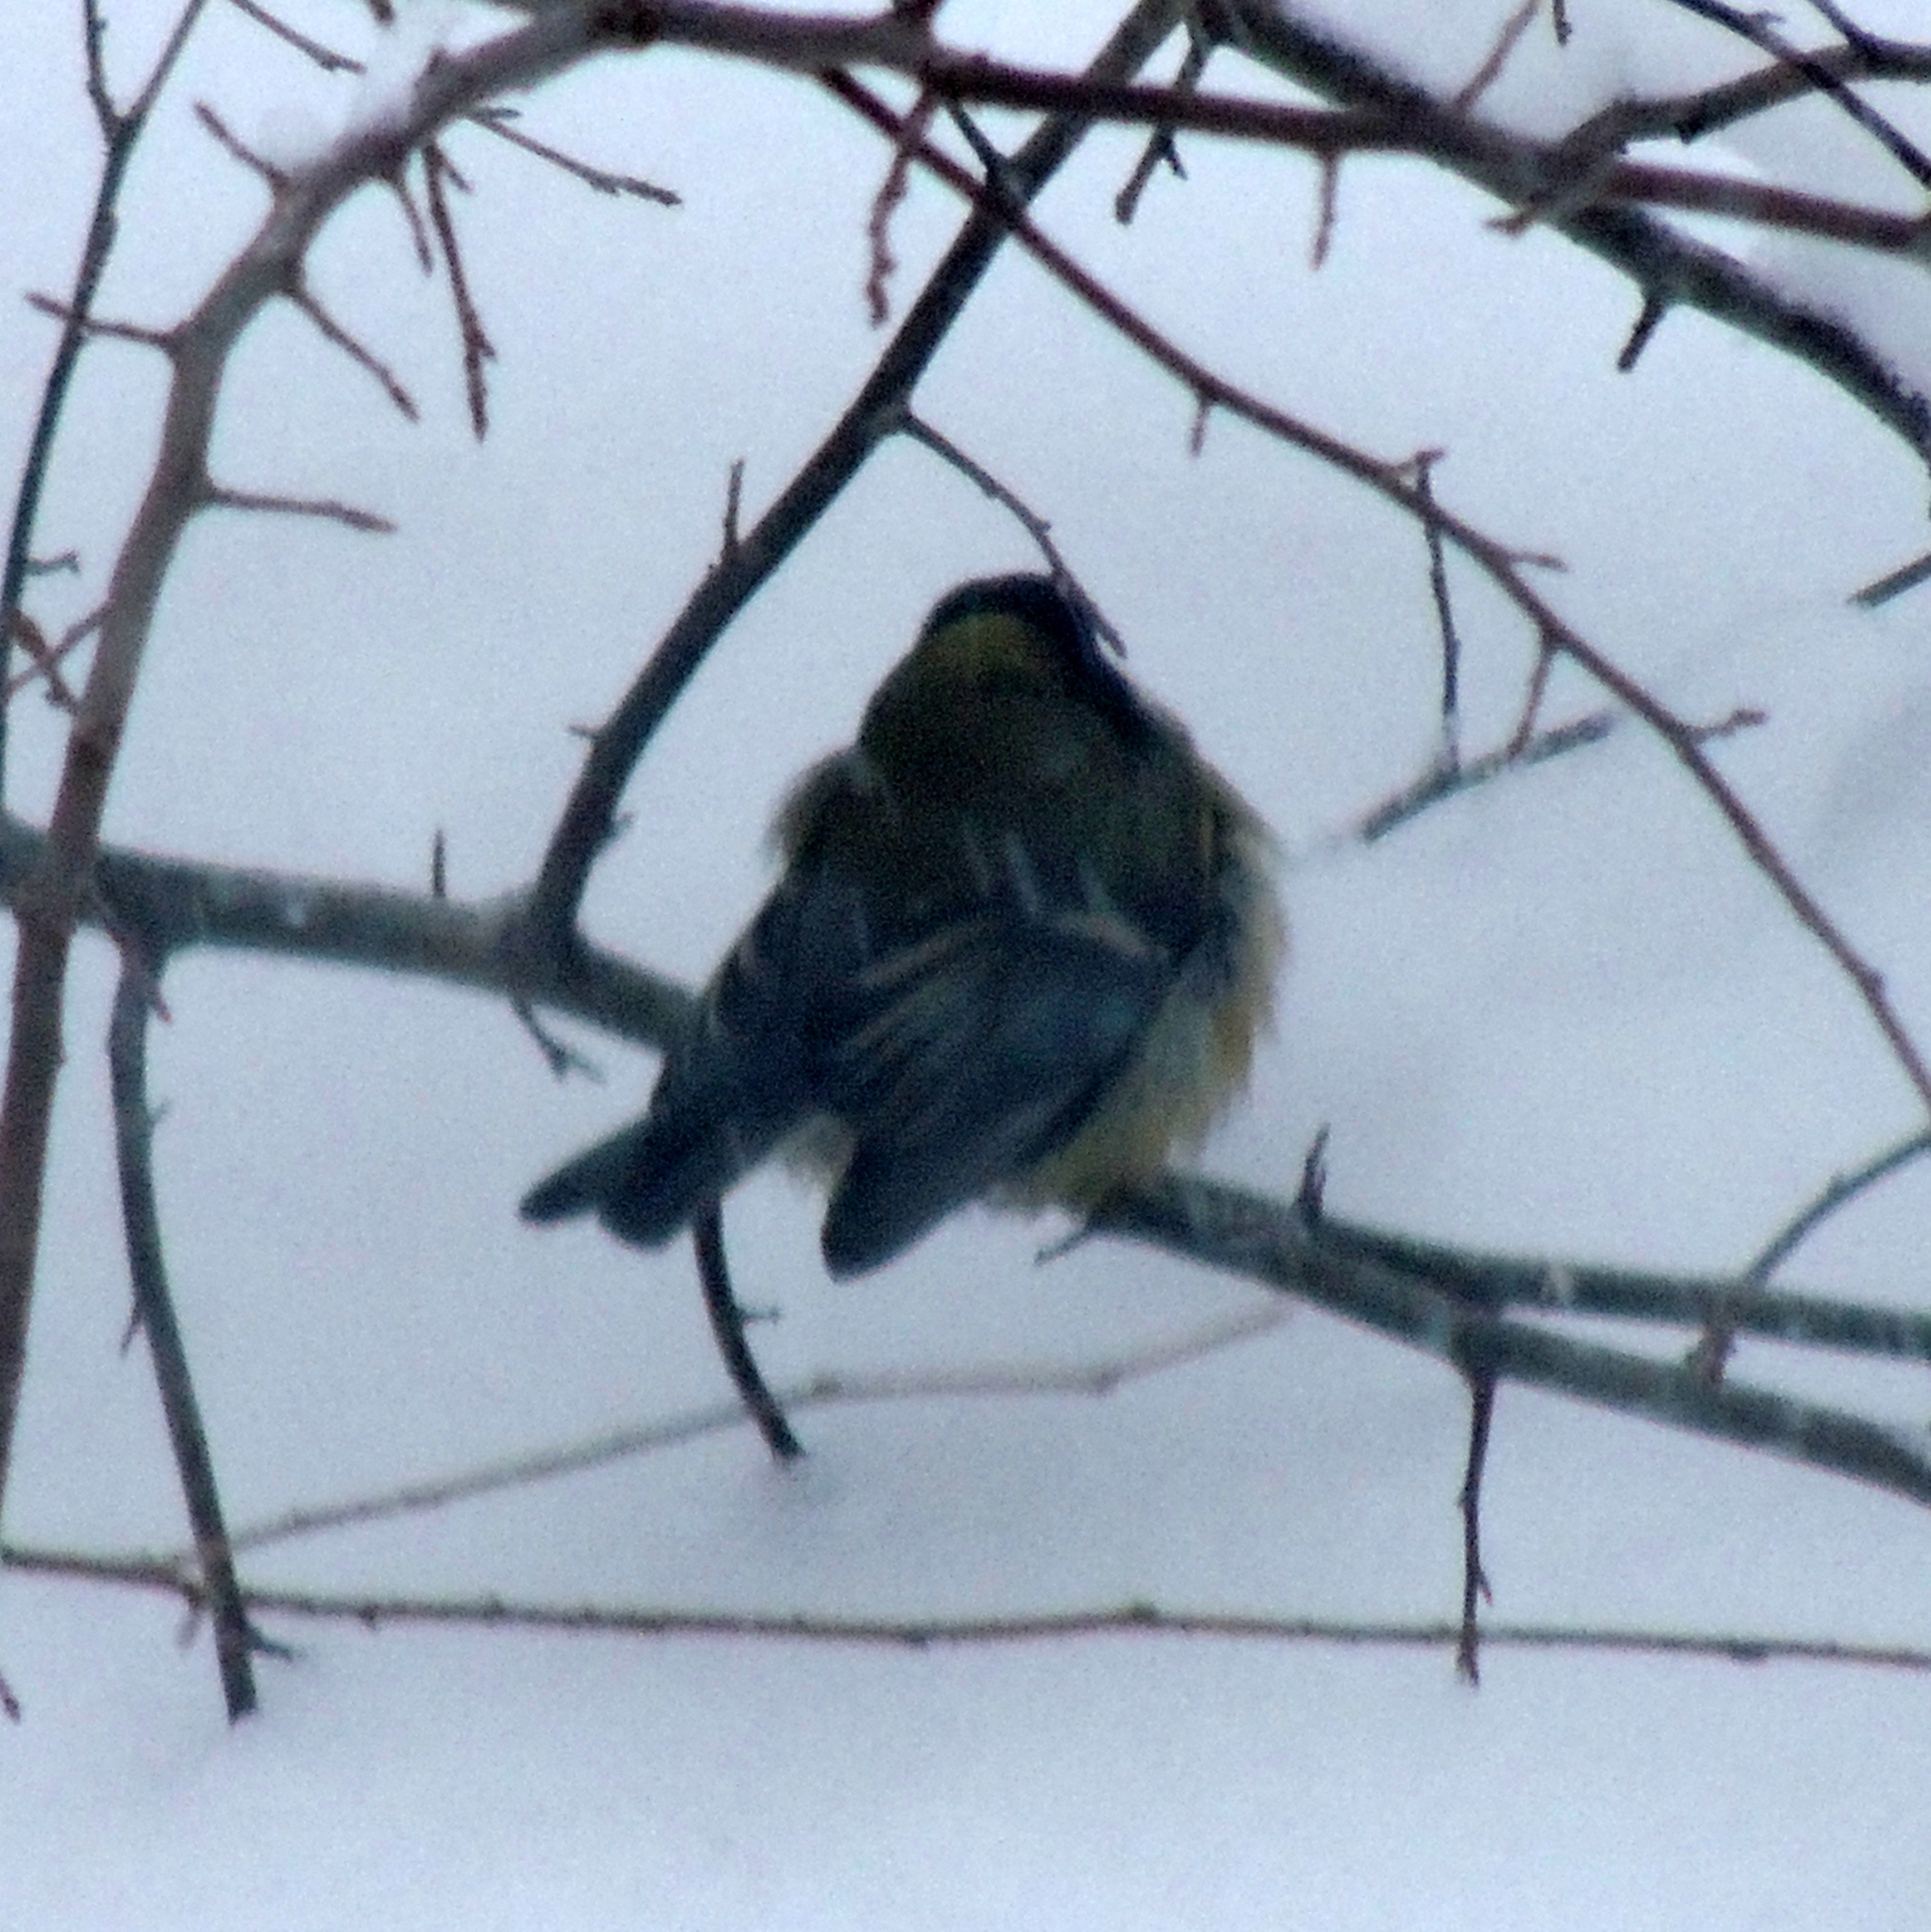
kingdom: Animalia
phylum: Chordata
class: Aves
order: Passeriformes
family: Paridae
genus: Parus
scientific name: Parus major
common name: Great tit
